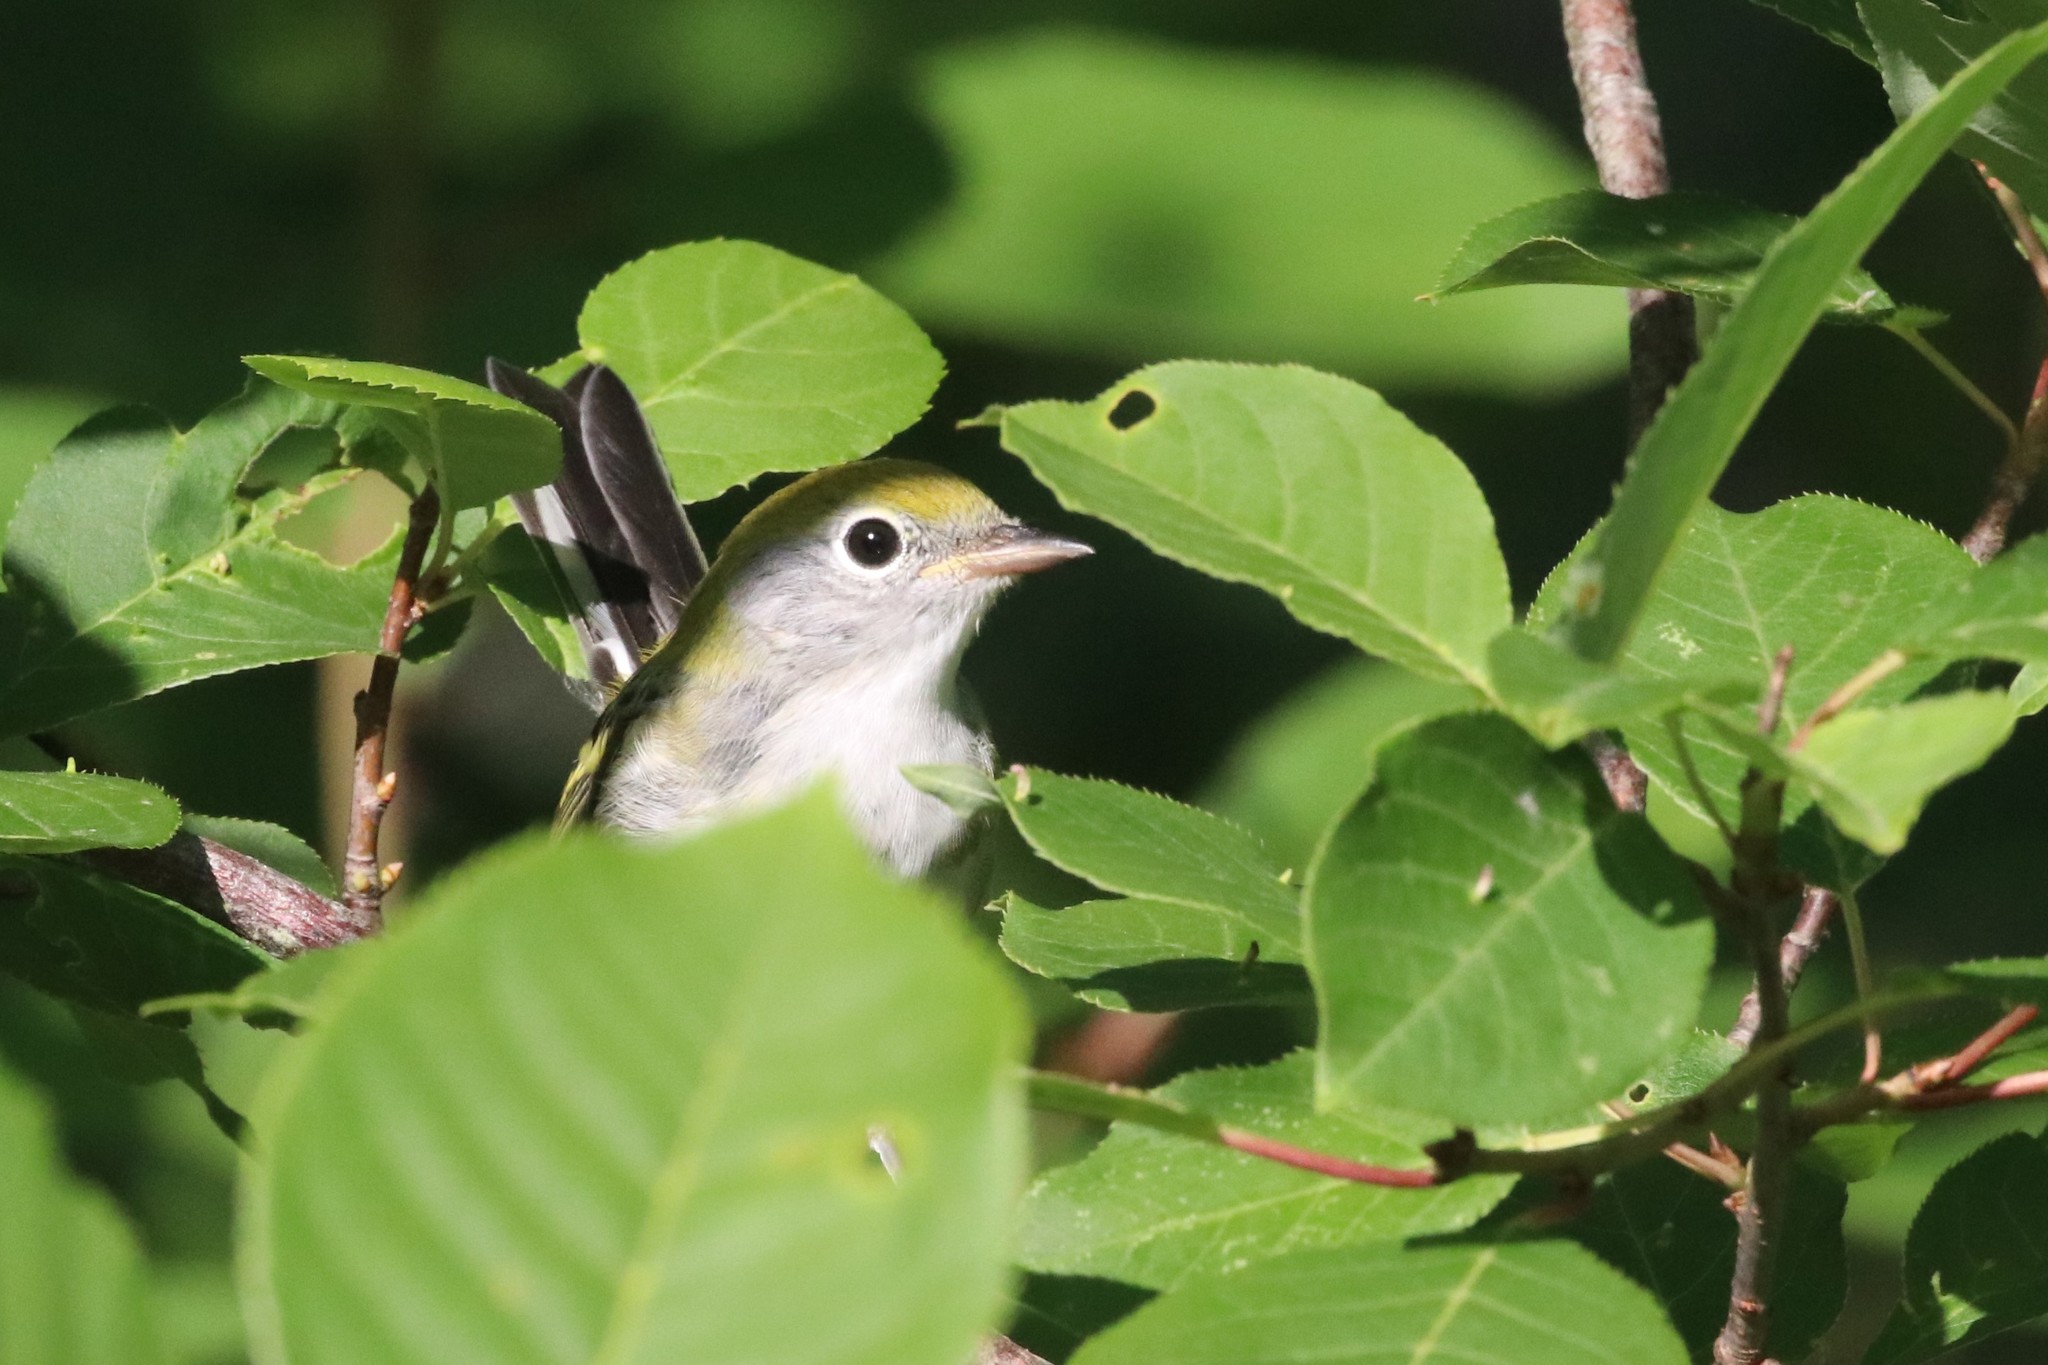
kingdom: Animalia
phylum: Chordata
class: Aves
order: Passeriformes
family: Parulidae
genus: Setophaga
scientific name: Setophaga pensylvanica
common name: Chestnut-sided warbler
